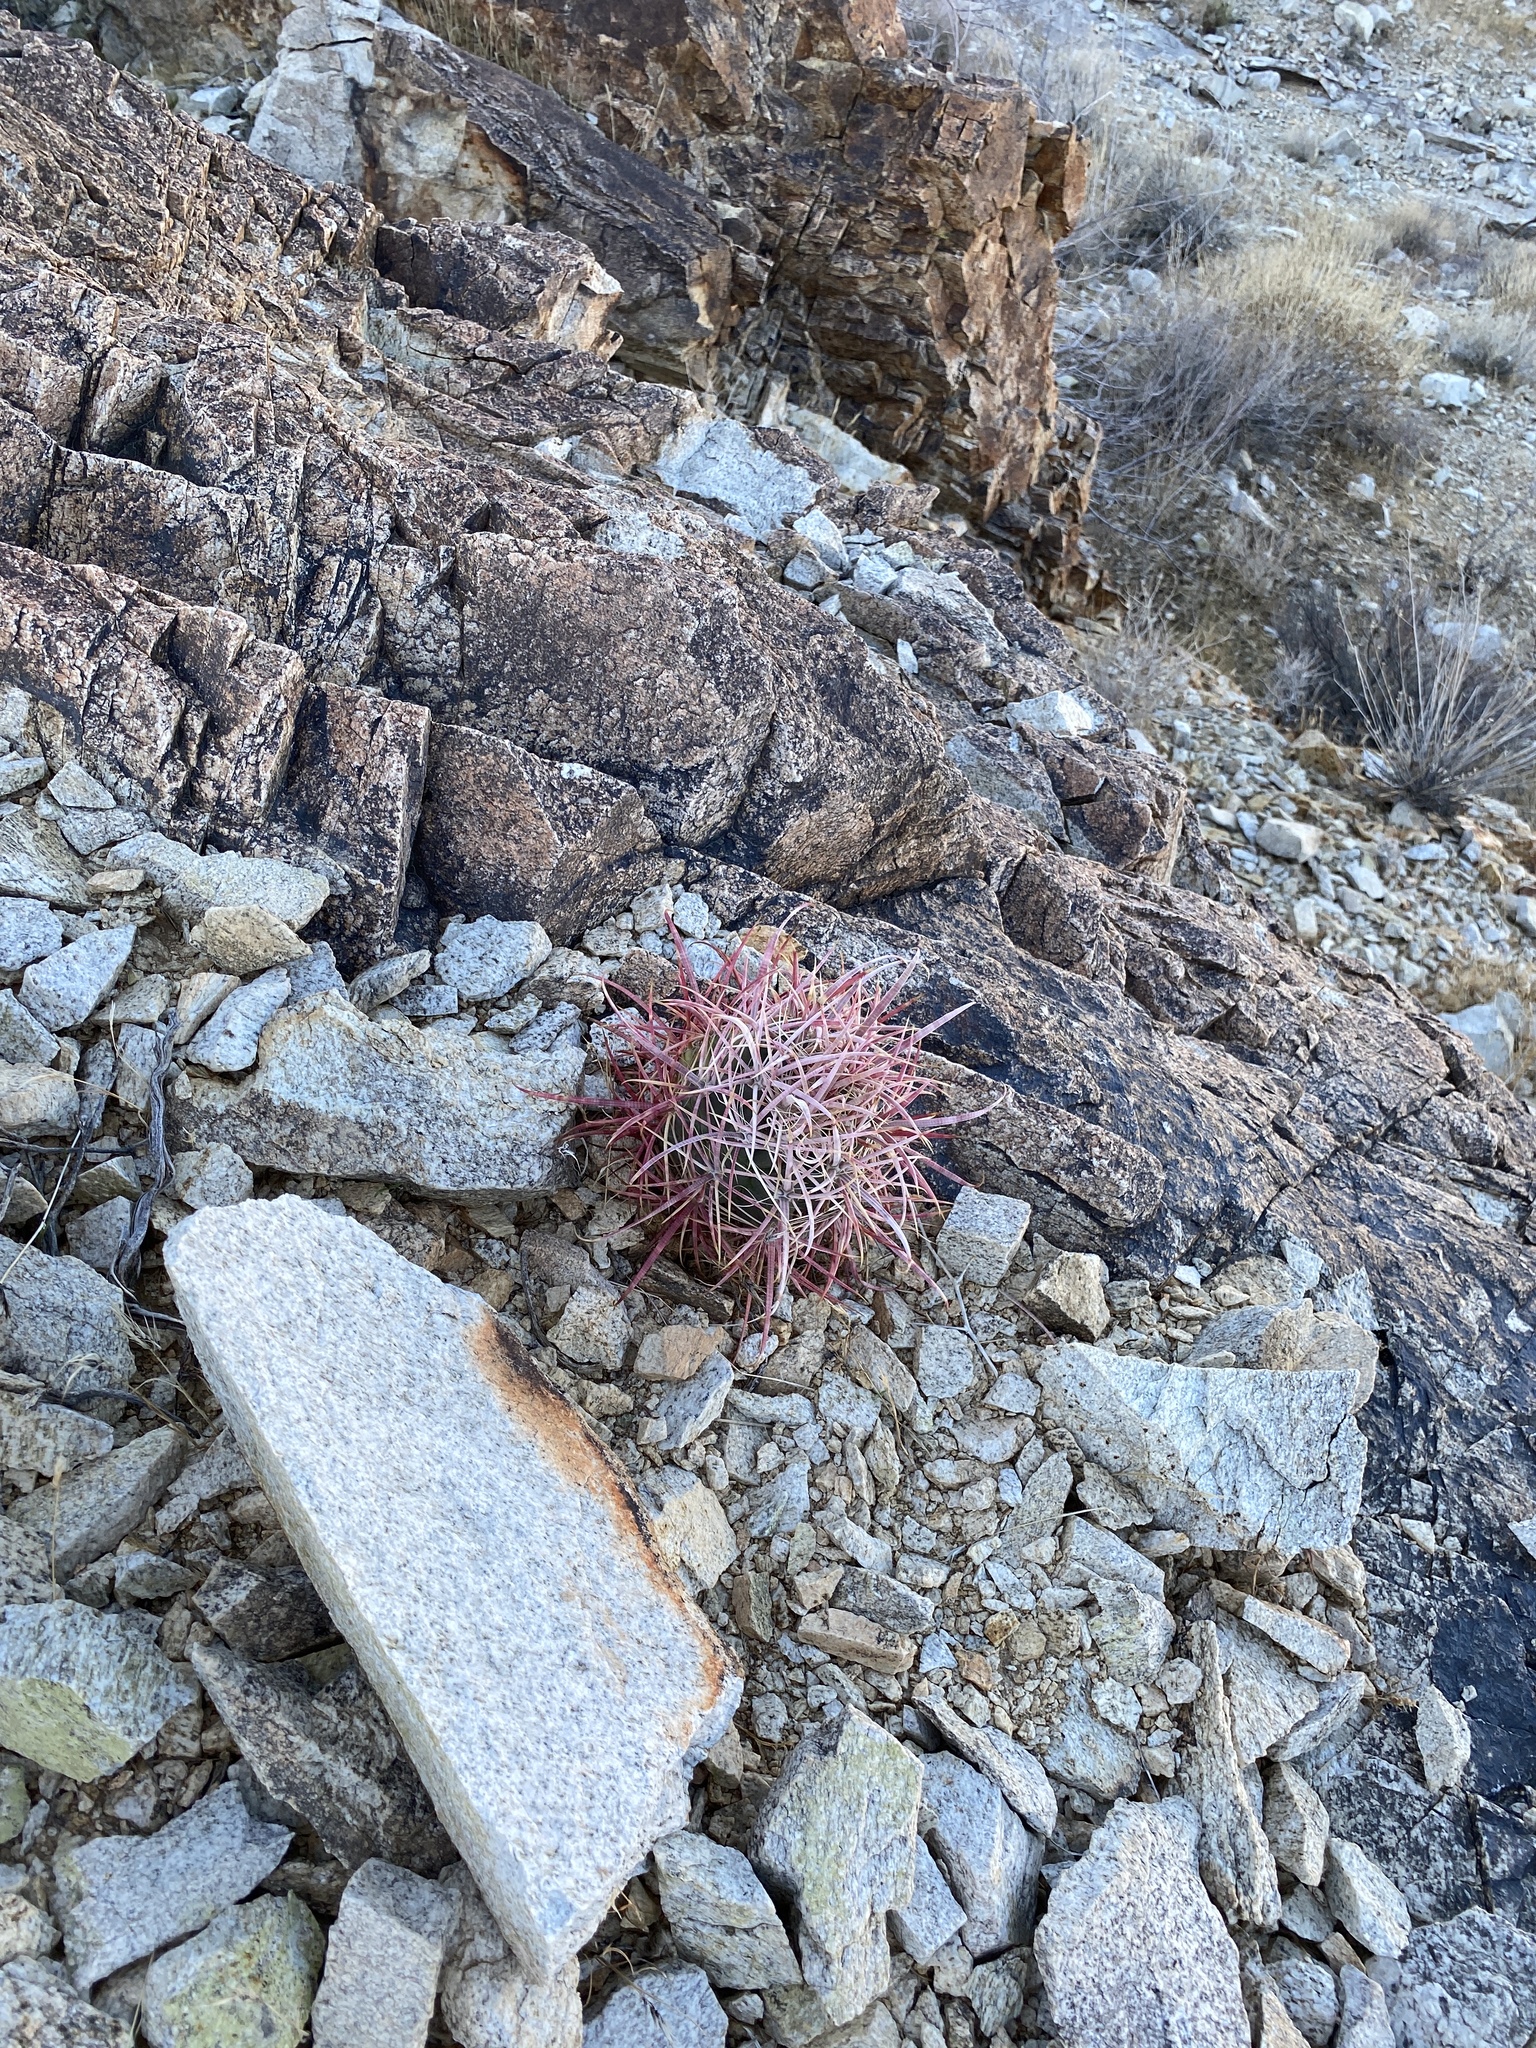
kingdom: Plantae
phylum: Tracheophyta
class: Magnoliopsida
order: Caryophyllales
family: Cactaceae
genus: Ferocactus
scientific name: Ferocactus cylindraceus
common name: California barrel cactus
